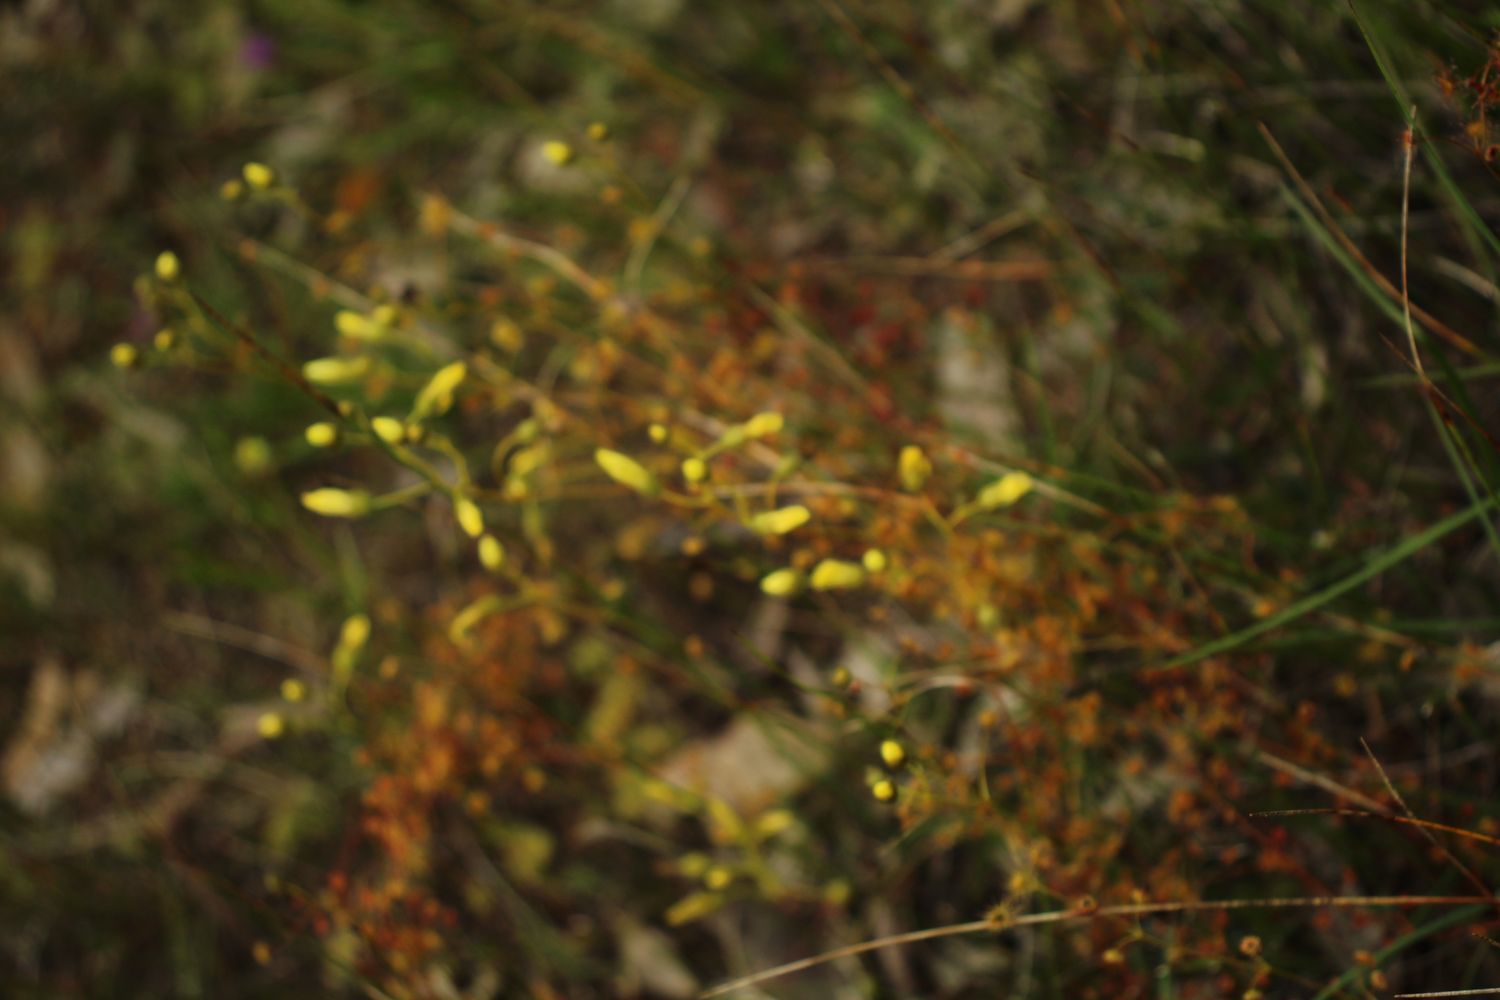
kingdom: Plantae
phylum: Tracheophyta
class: Magnoliopsida
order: Caryophyllales
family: Droseraceae
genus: Drosera
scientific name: Drosera intricata
